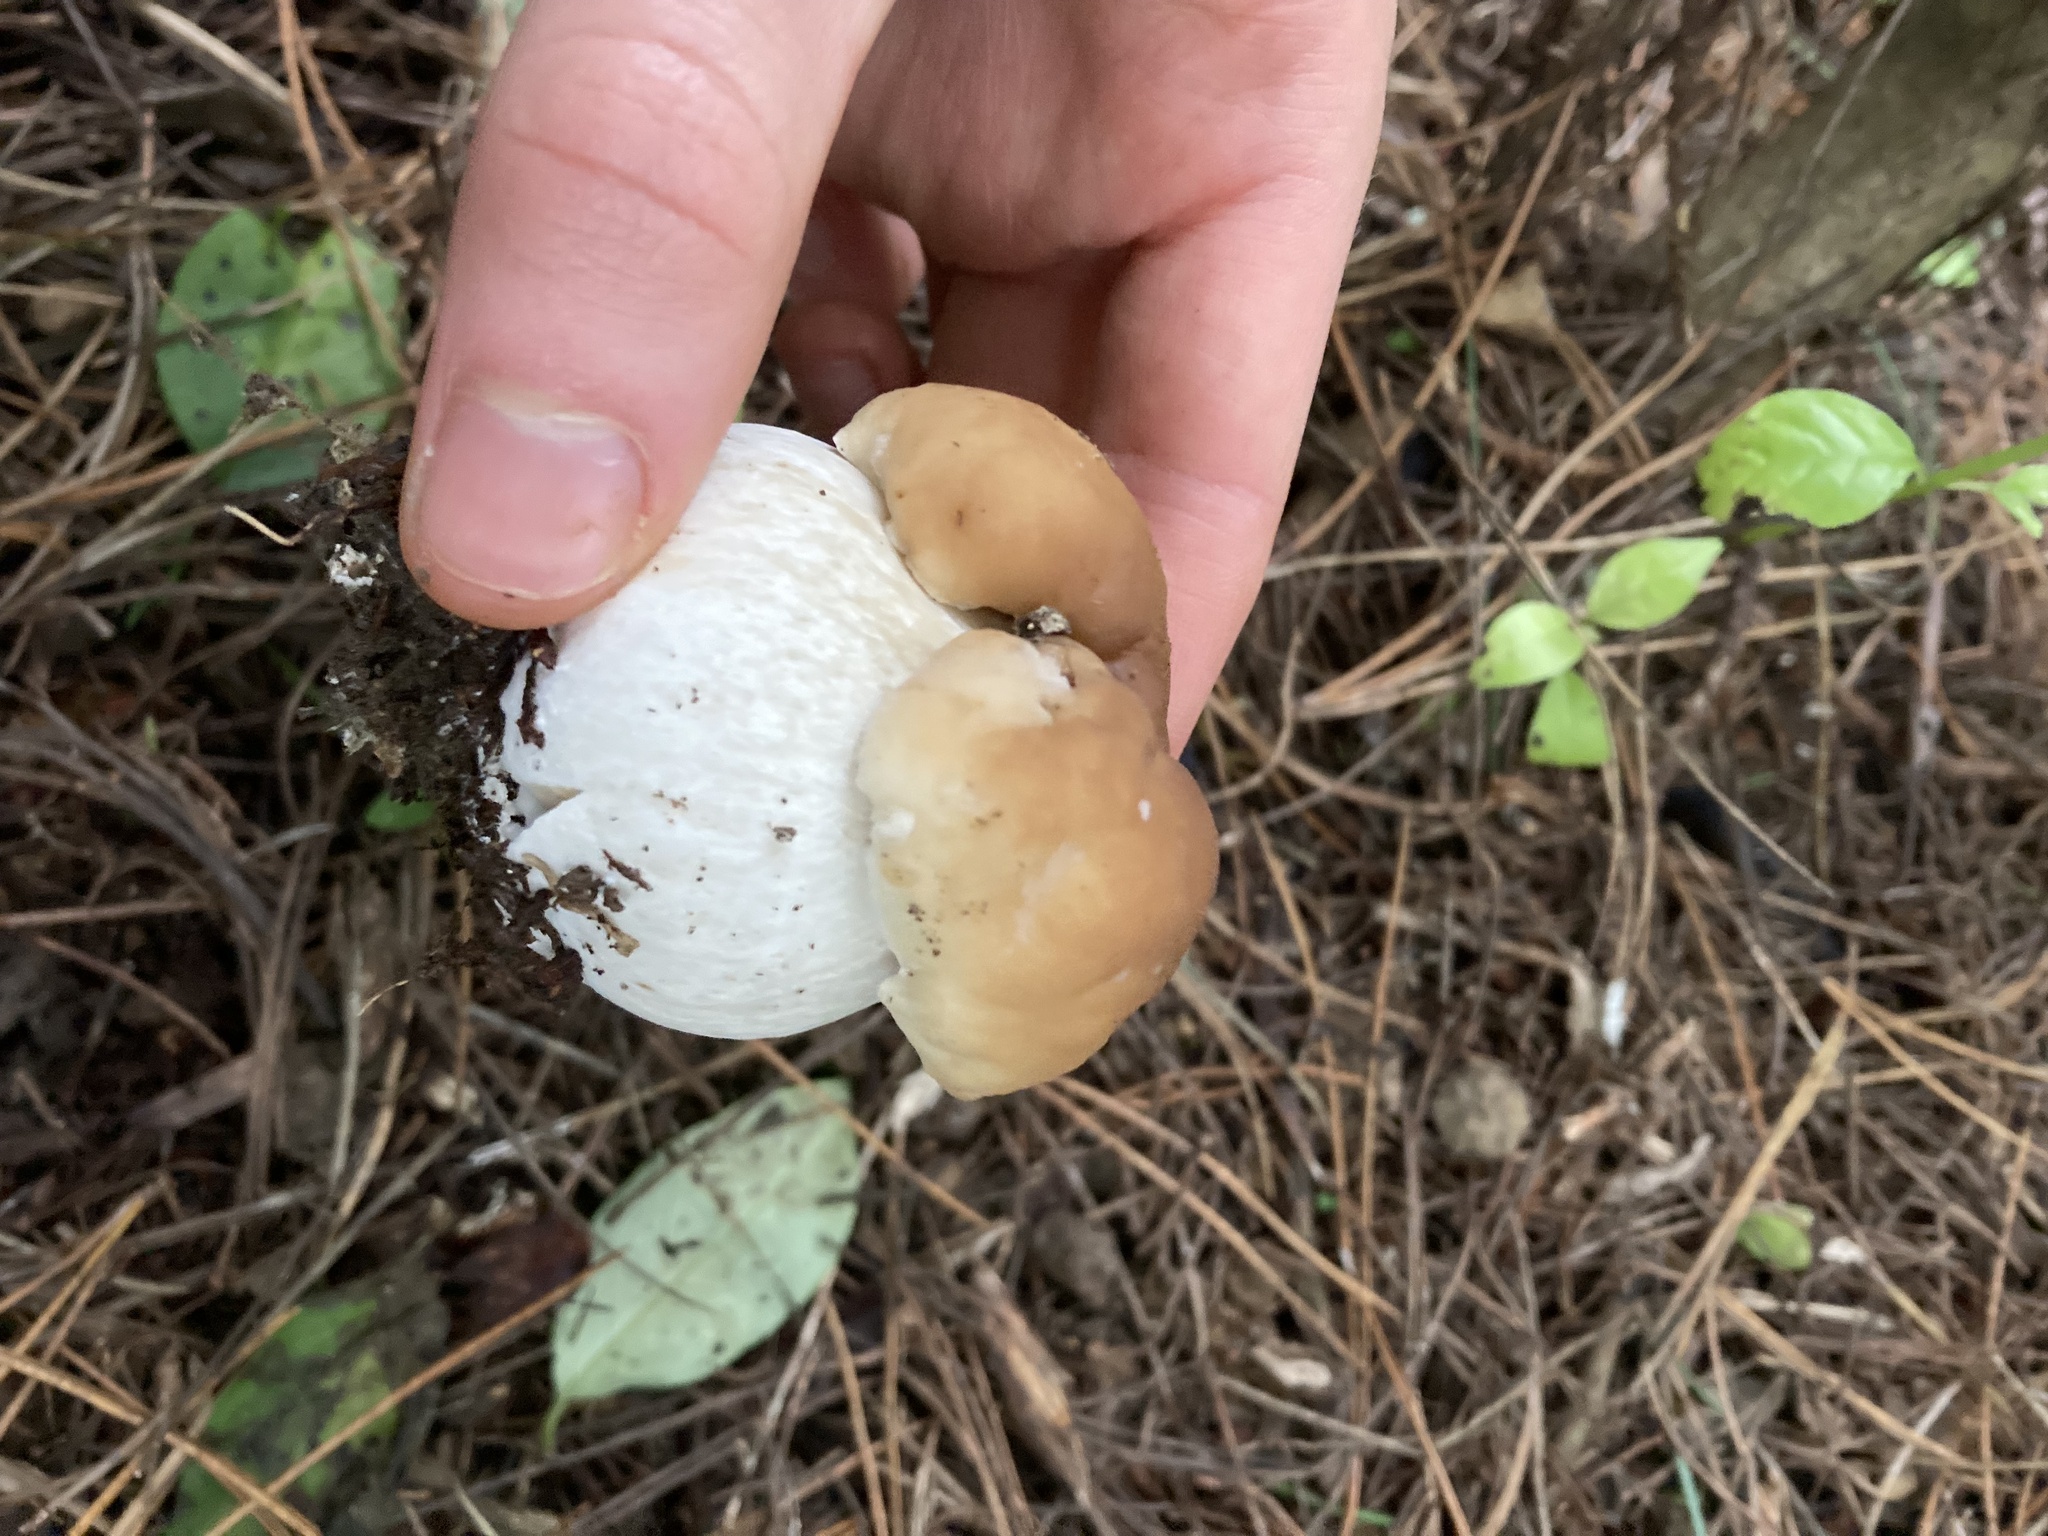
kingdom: Fungi
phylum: Basidiomycota
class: Agaricomycetes
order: Boletales
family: Boletaceae
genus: Boletus
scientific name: Boletus edulis
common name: Cep
